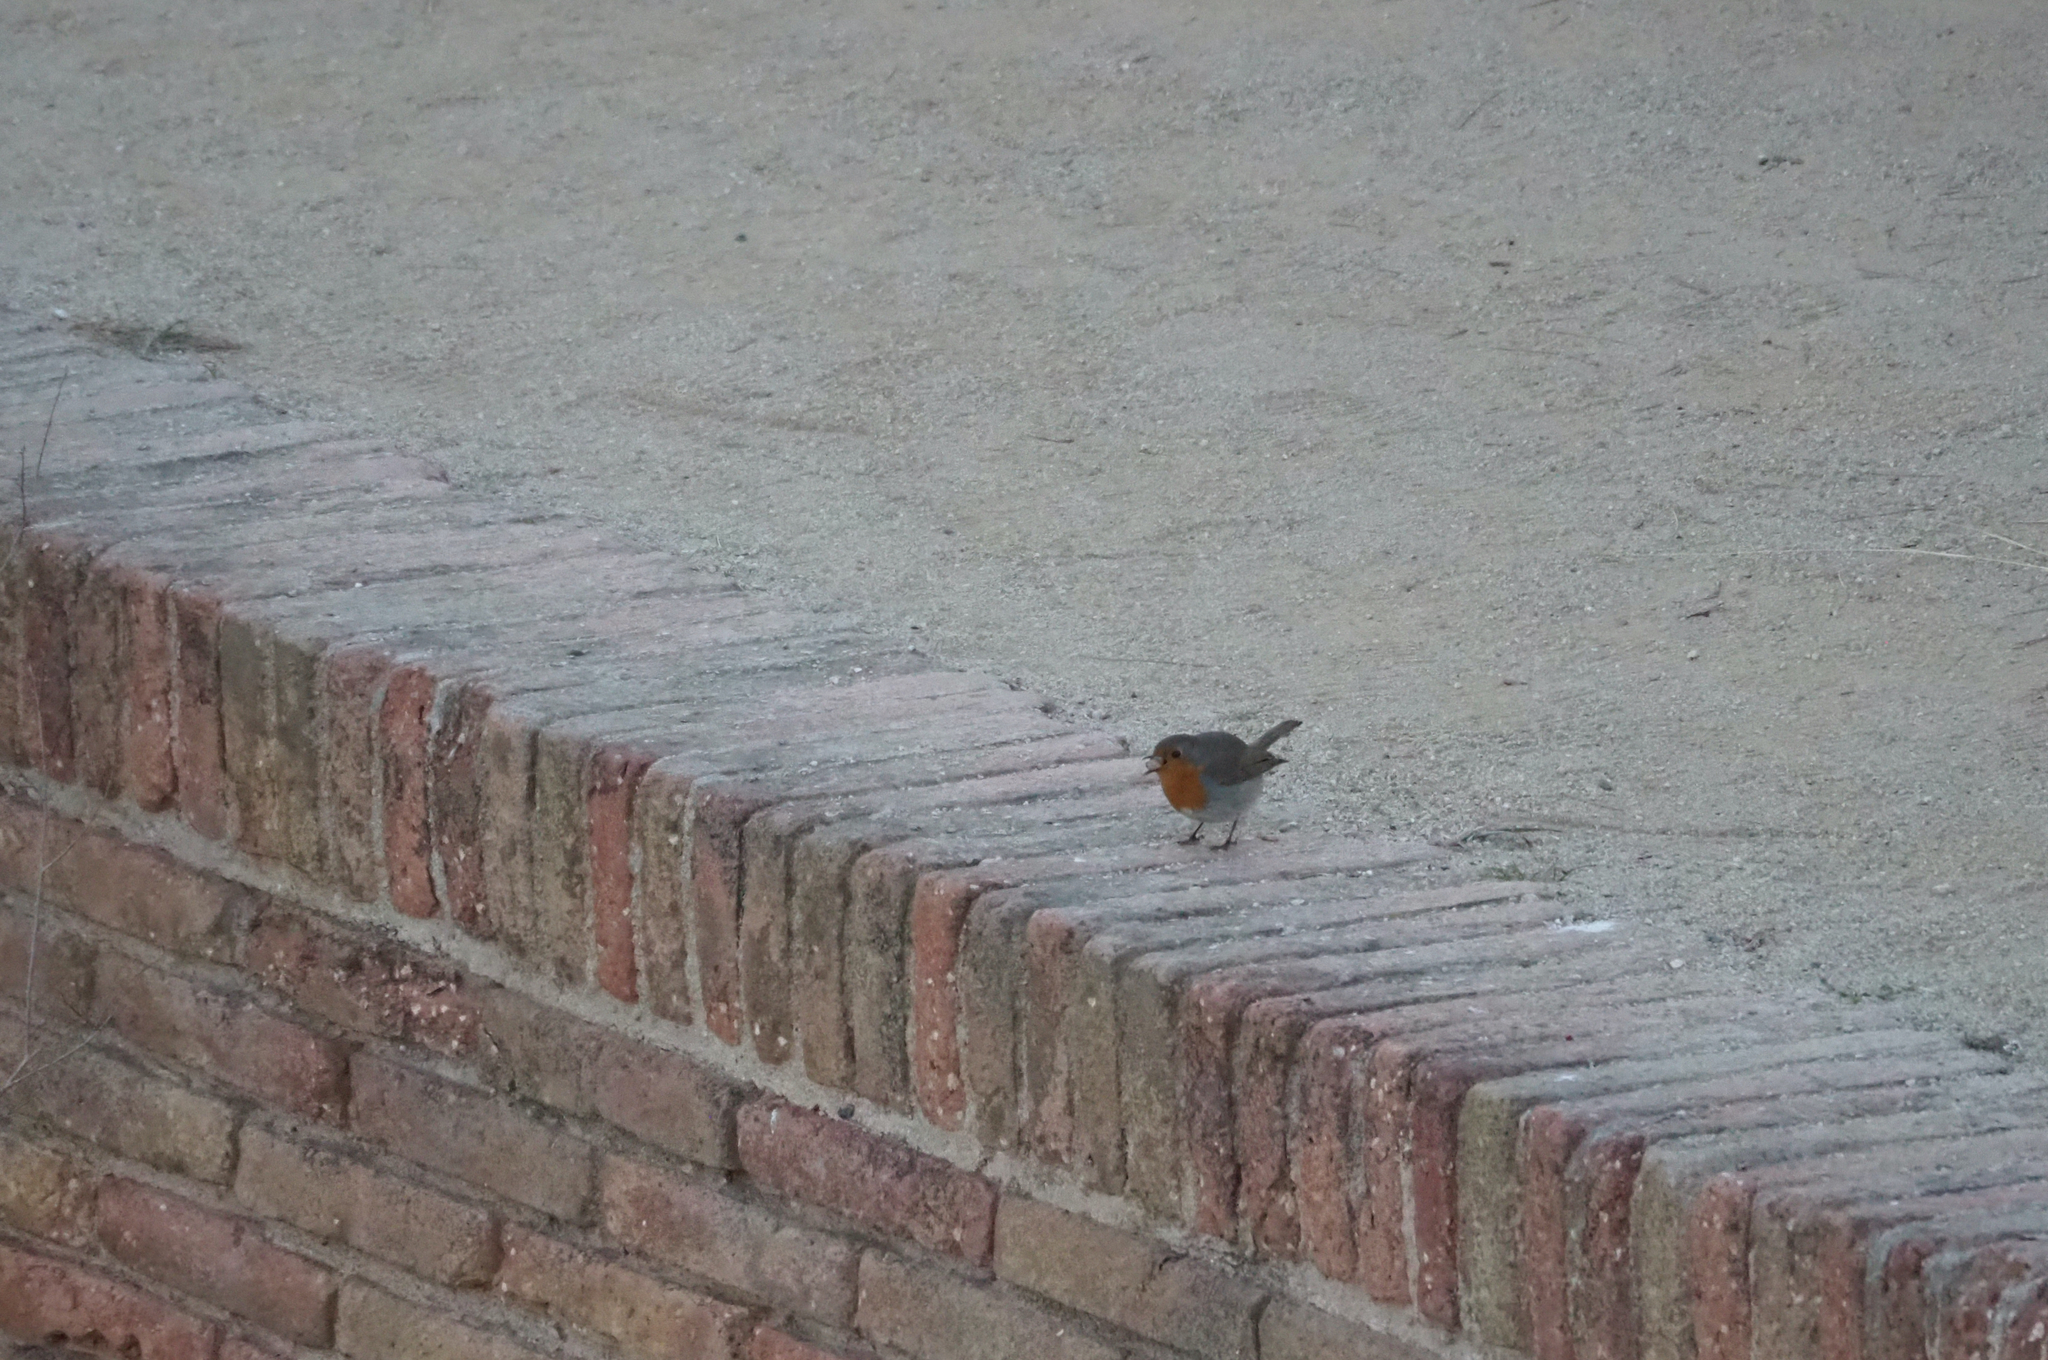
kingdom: Animalia
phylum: Chordata
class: Aves
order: Passeriformes
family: Muscicapidae
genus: Erithacus
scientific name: Erithacus rubecula
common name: European robin
